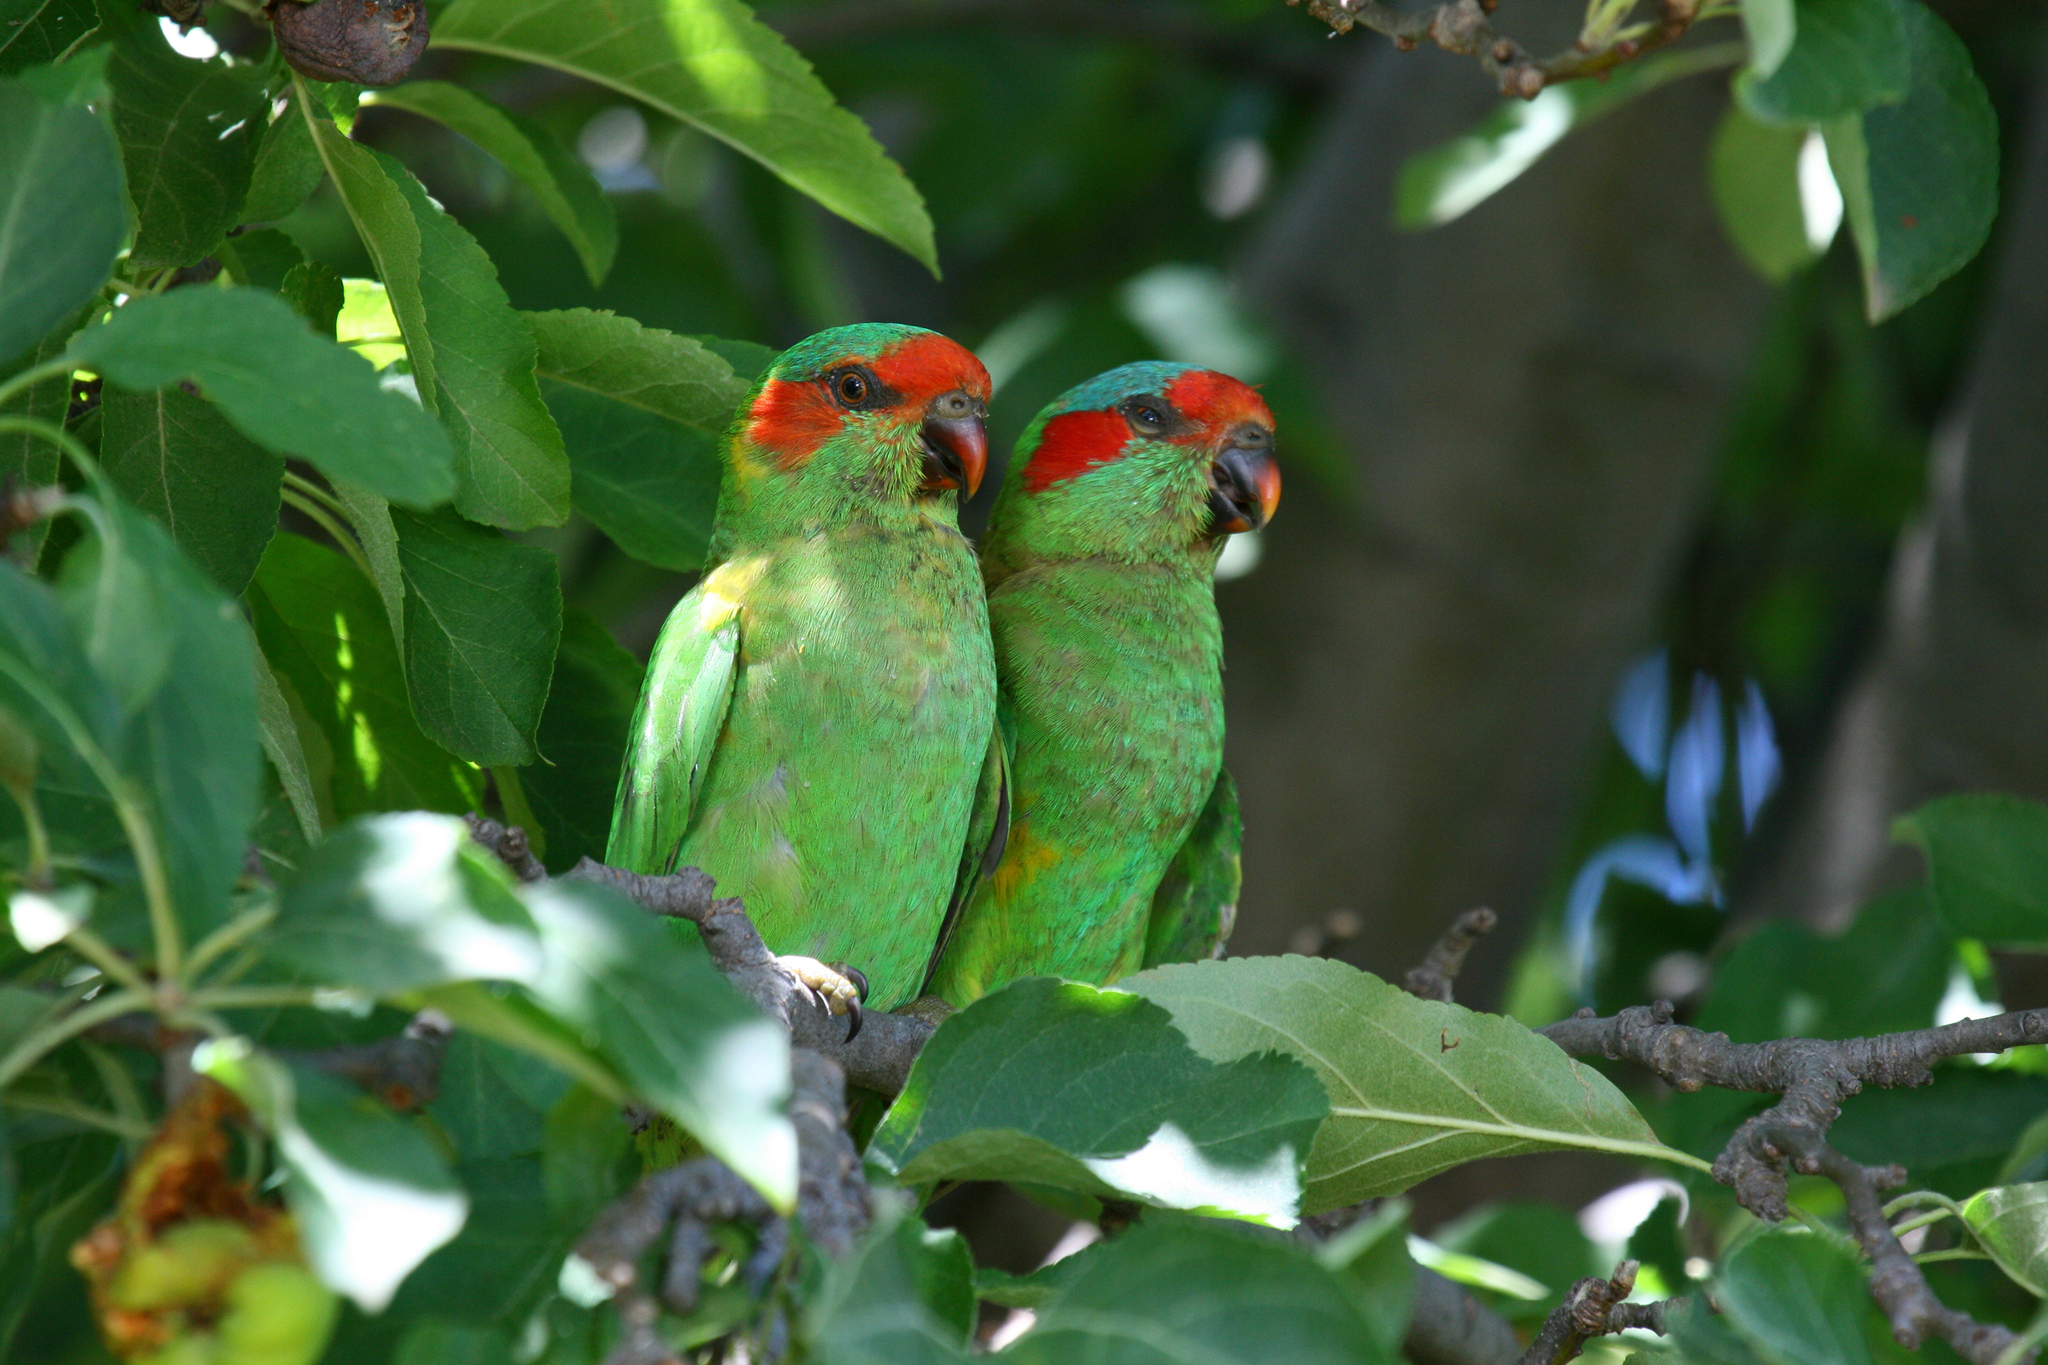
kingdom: Animalia
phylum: Chordata
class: Aves
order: Psittaciformes
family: Psittacidae
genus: Glossopsitta
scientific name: Glossopsitta concinna
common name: Musk lorikeet
